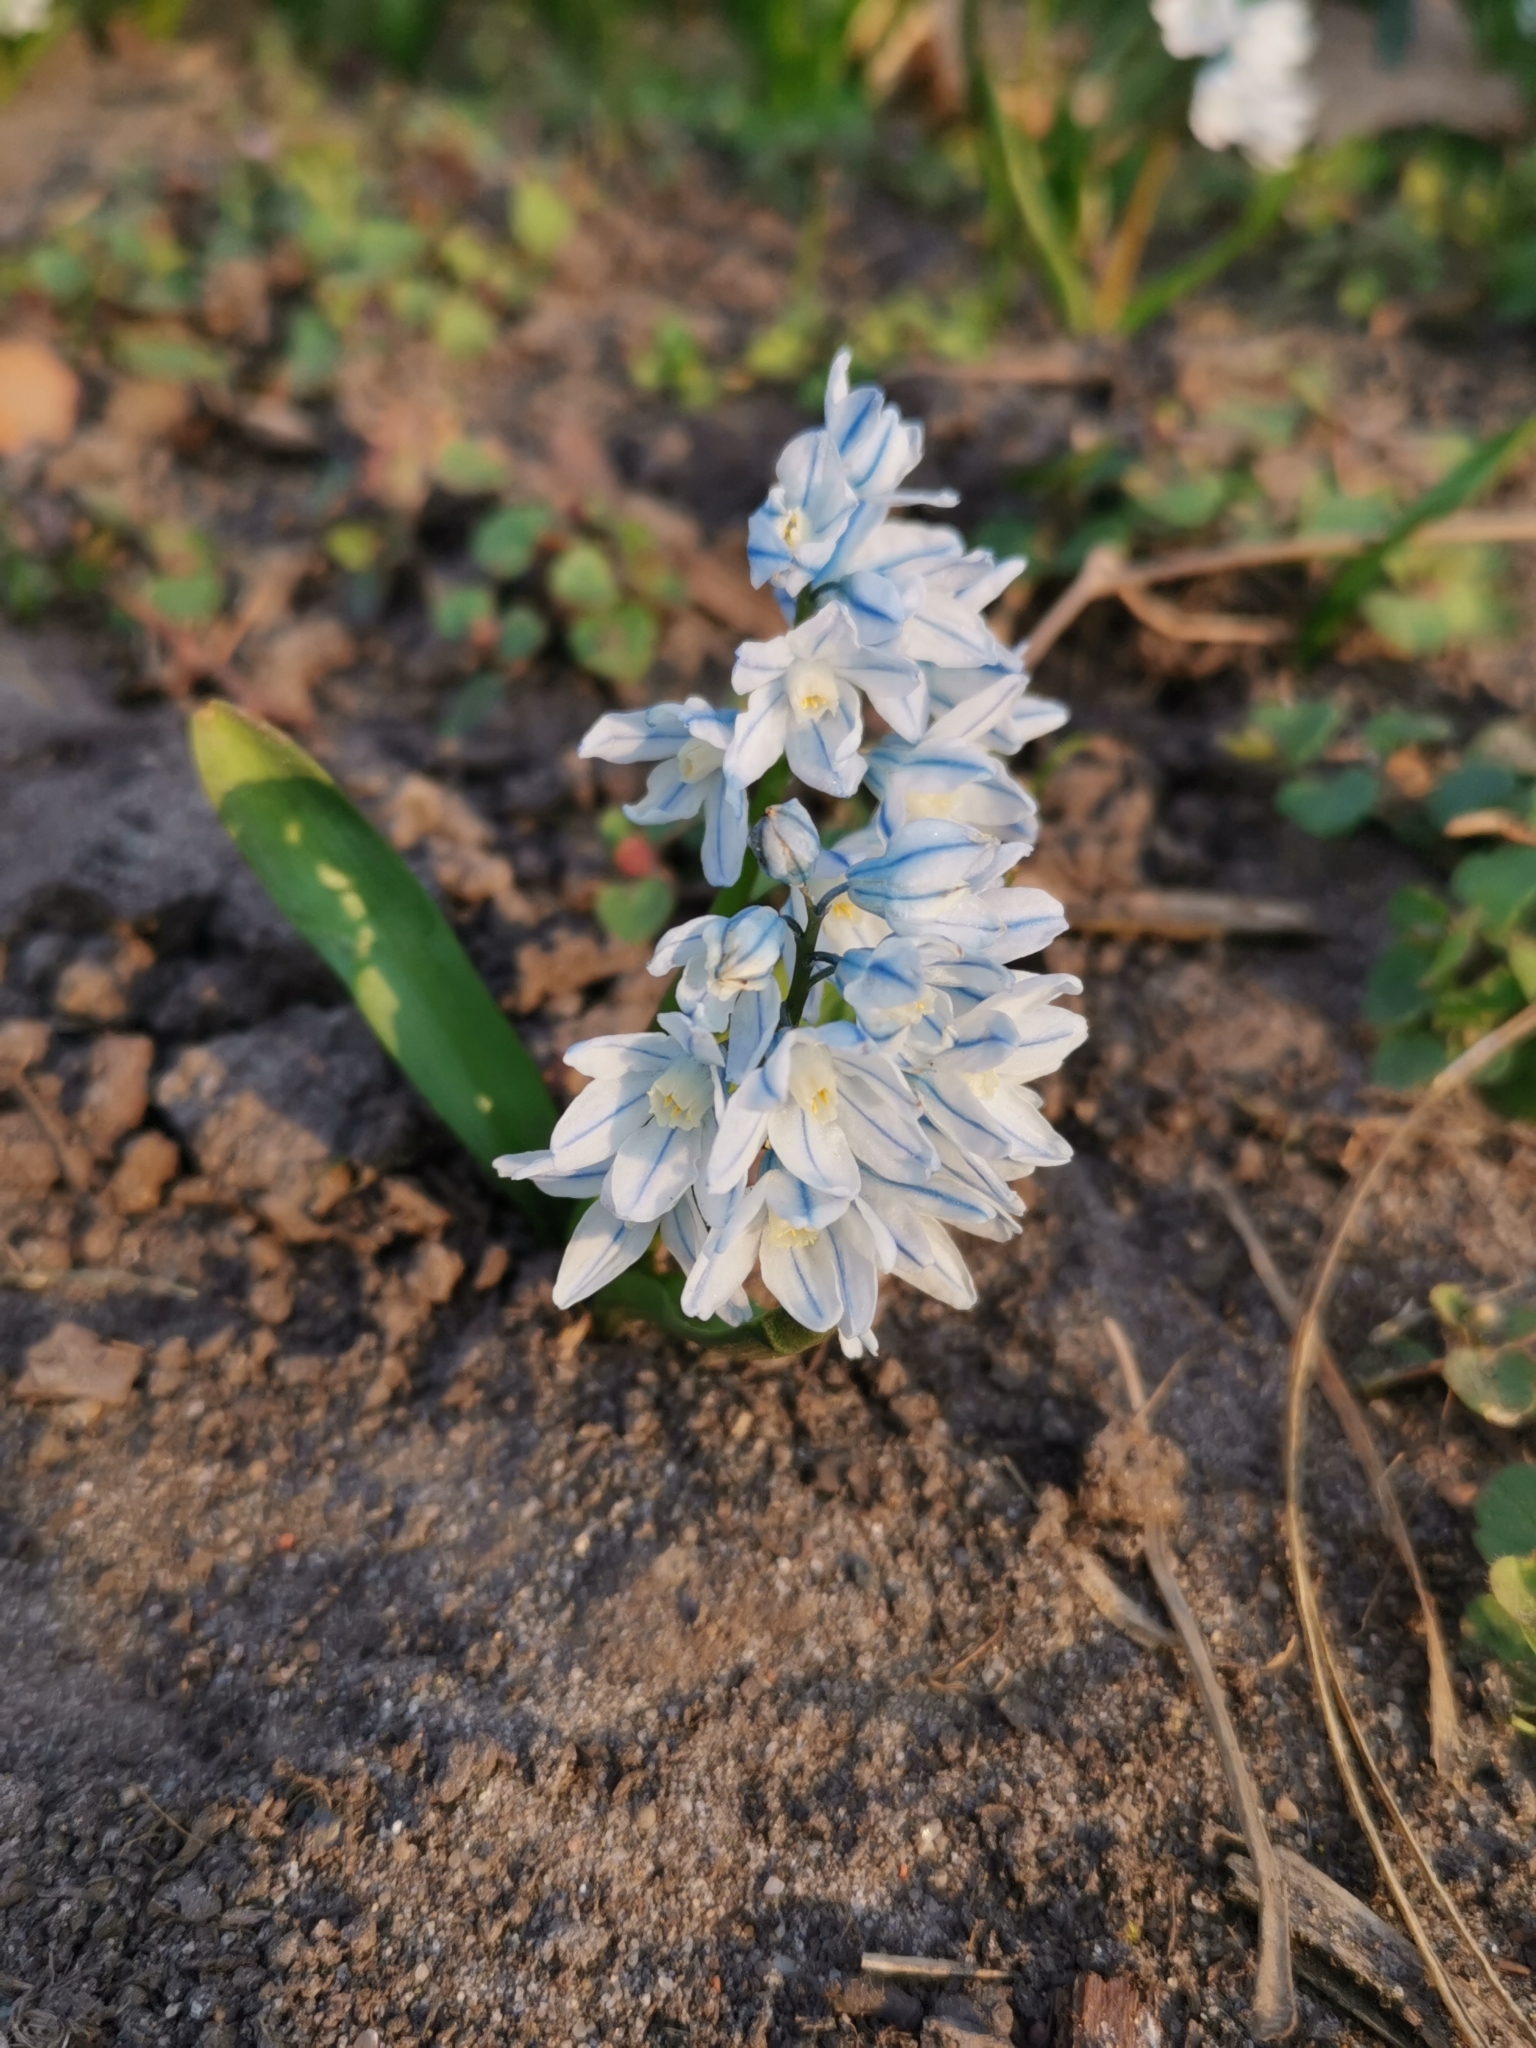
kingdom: Plantae
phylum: Tracheophyta
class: Liliopsida
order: Asparagales
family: Asparagaceae
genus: Puschkinia
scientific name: Puschkinia scilloides
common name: Striped squill
